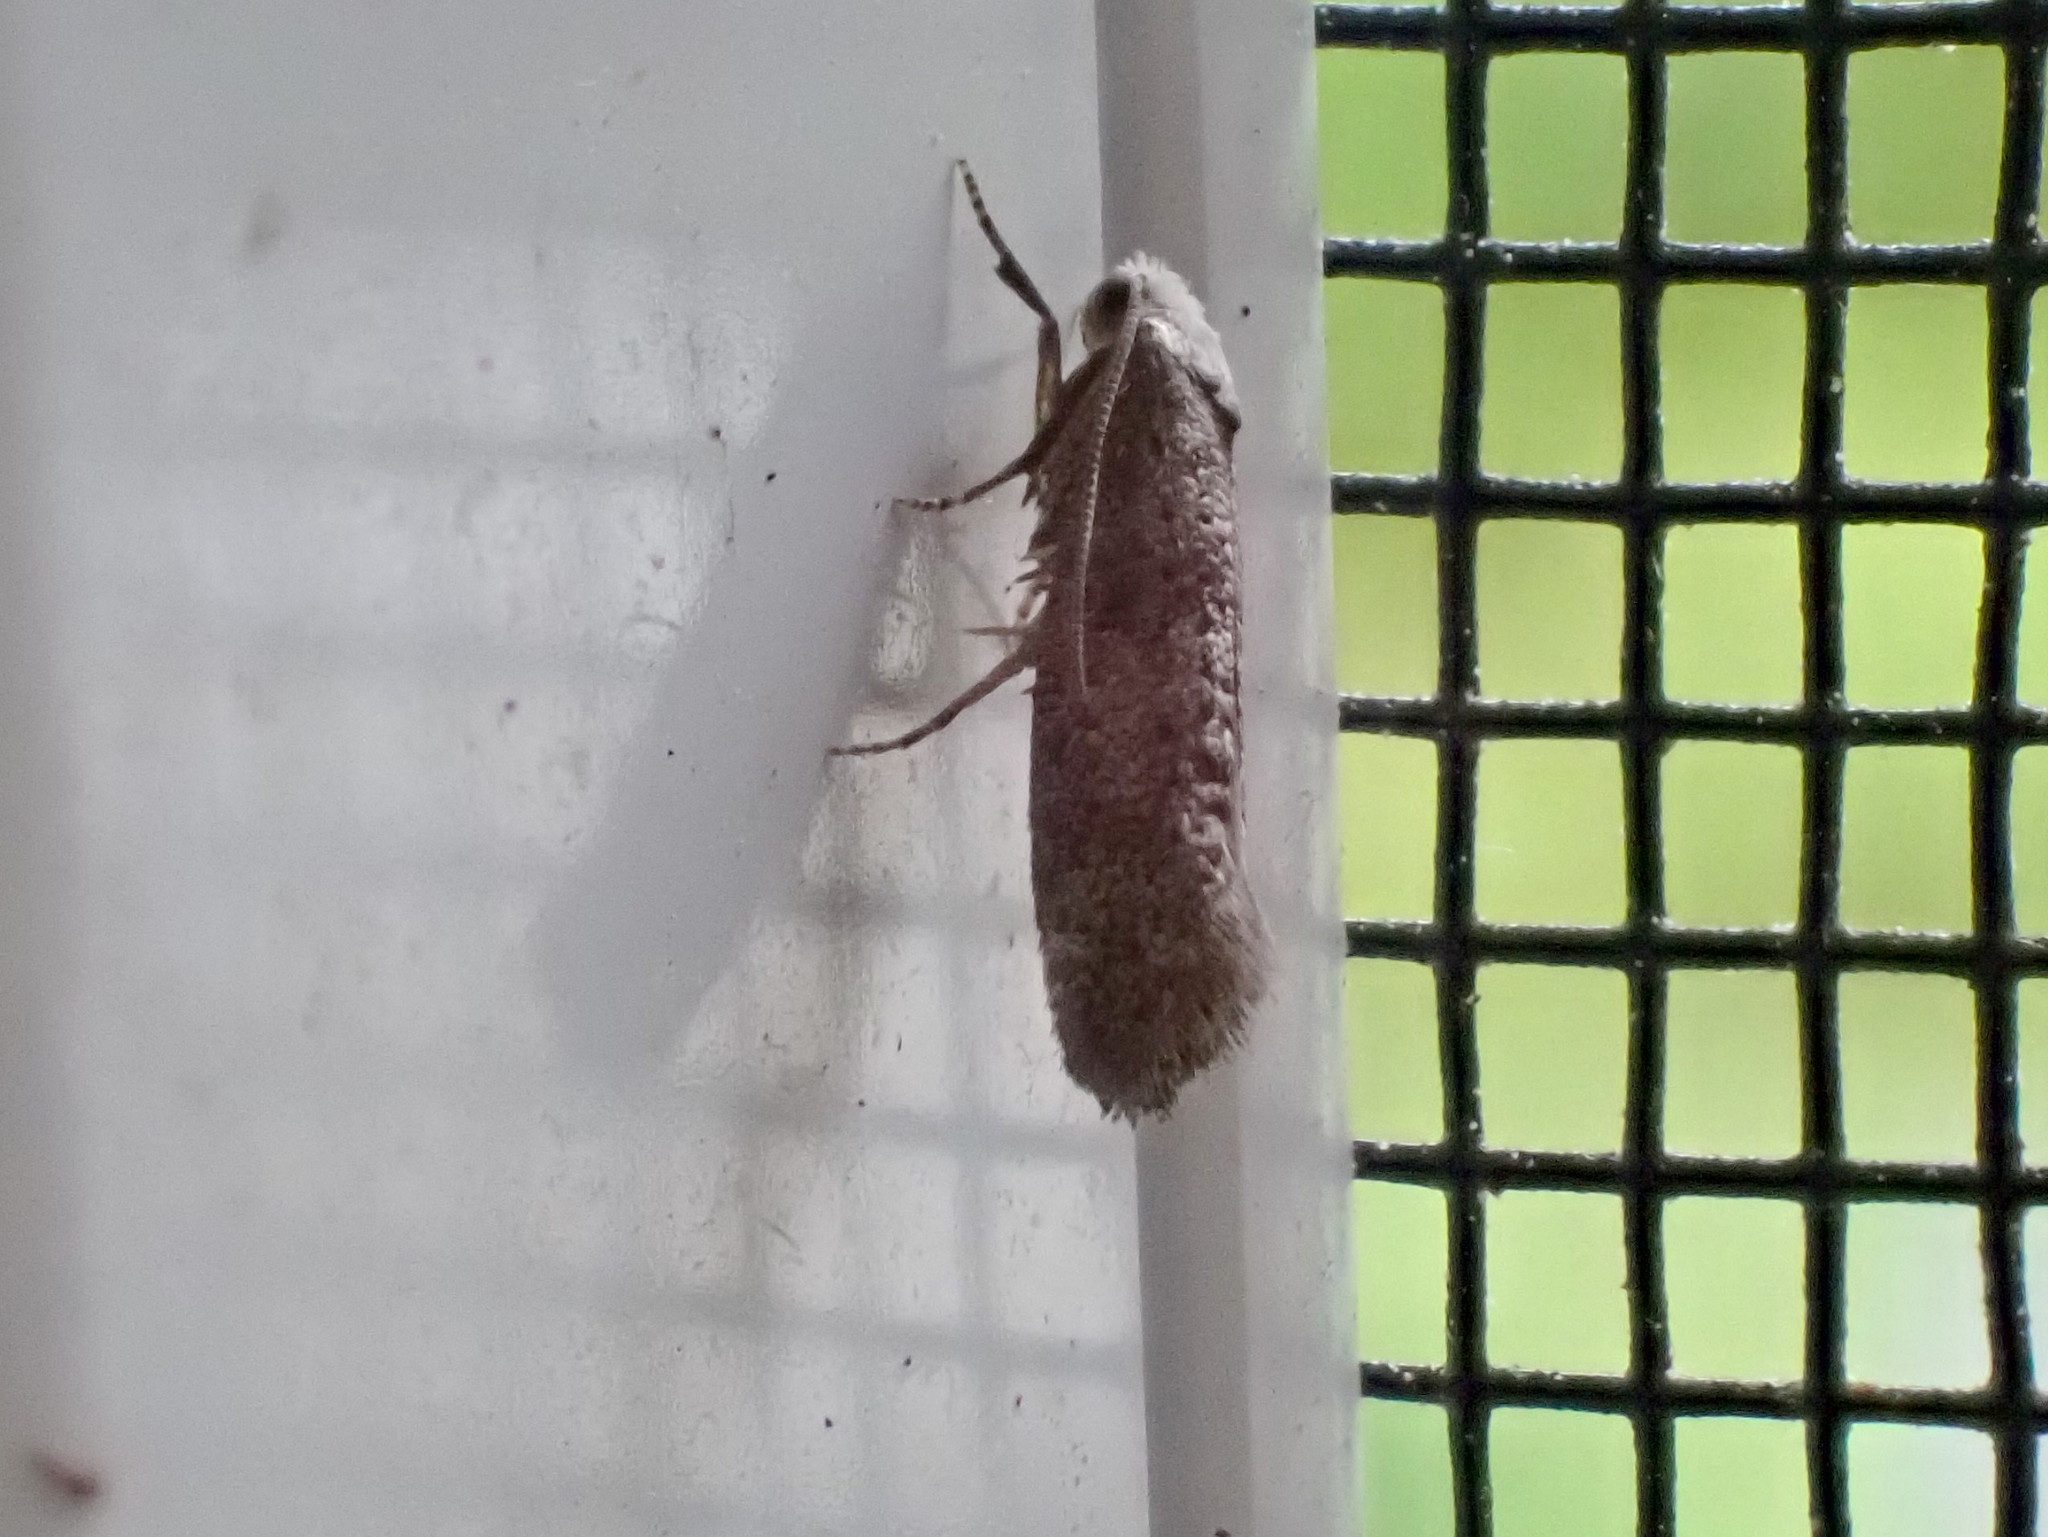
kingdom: Animalia
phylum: Arthropoda
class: Insecta
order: Lepidoptera
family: Yponomeutidae
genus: Swammerdamia
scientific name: Swammerdamia
